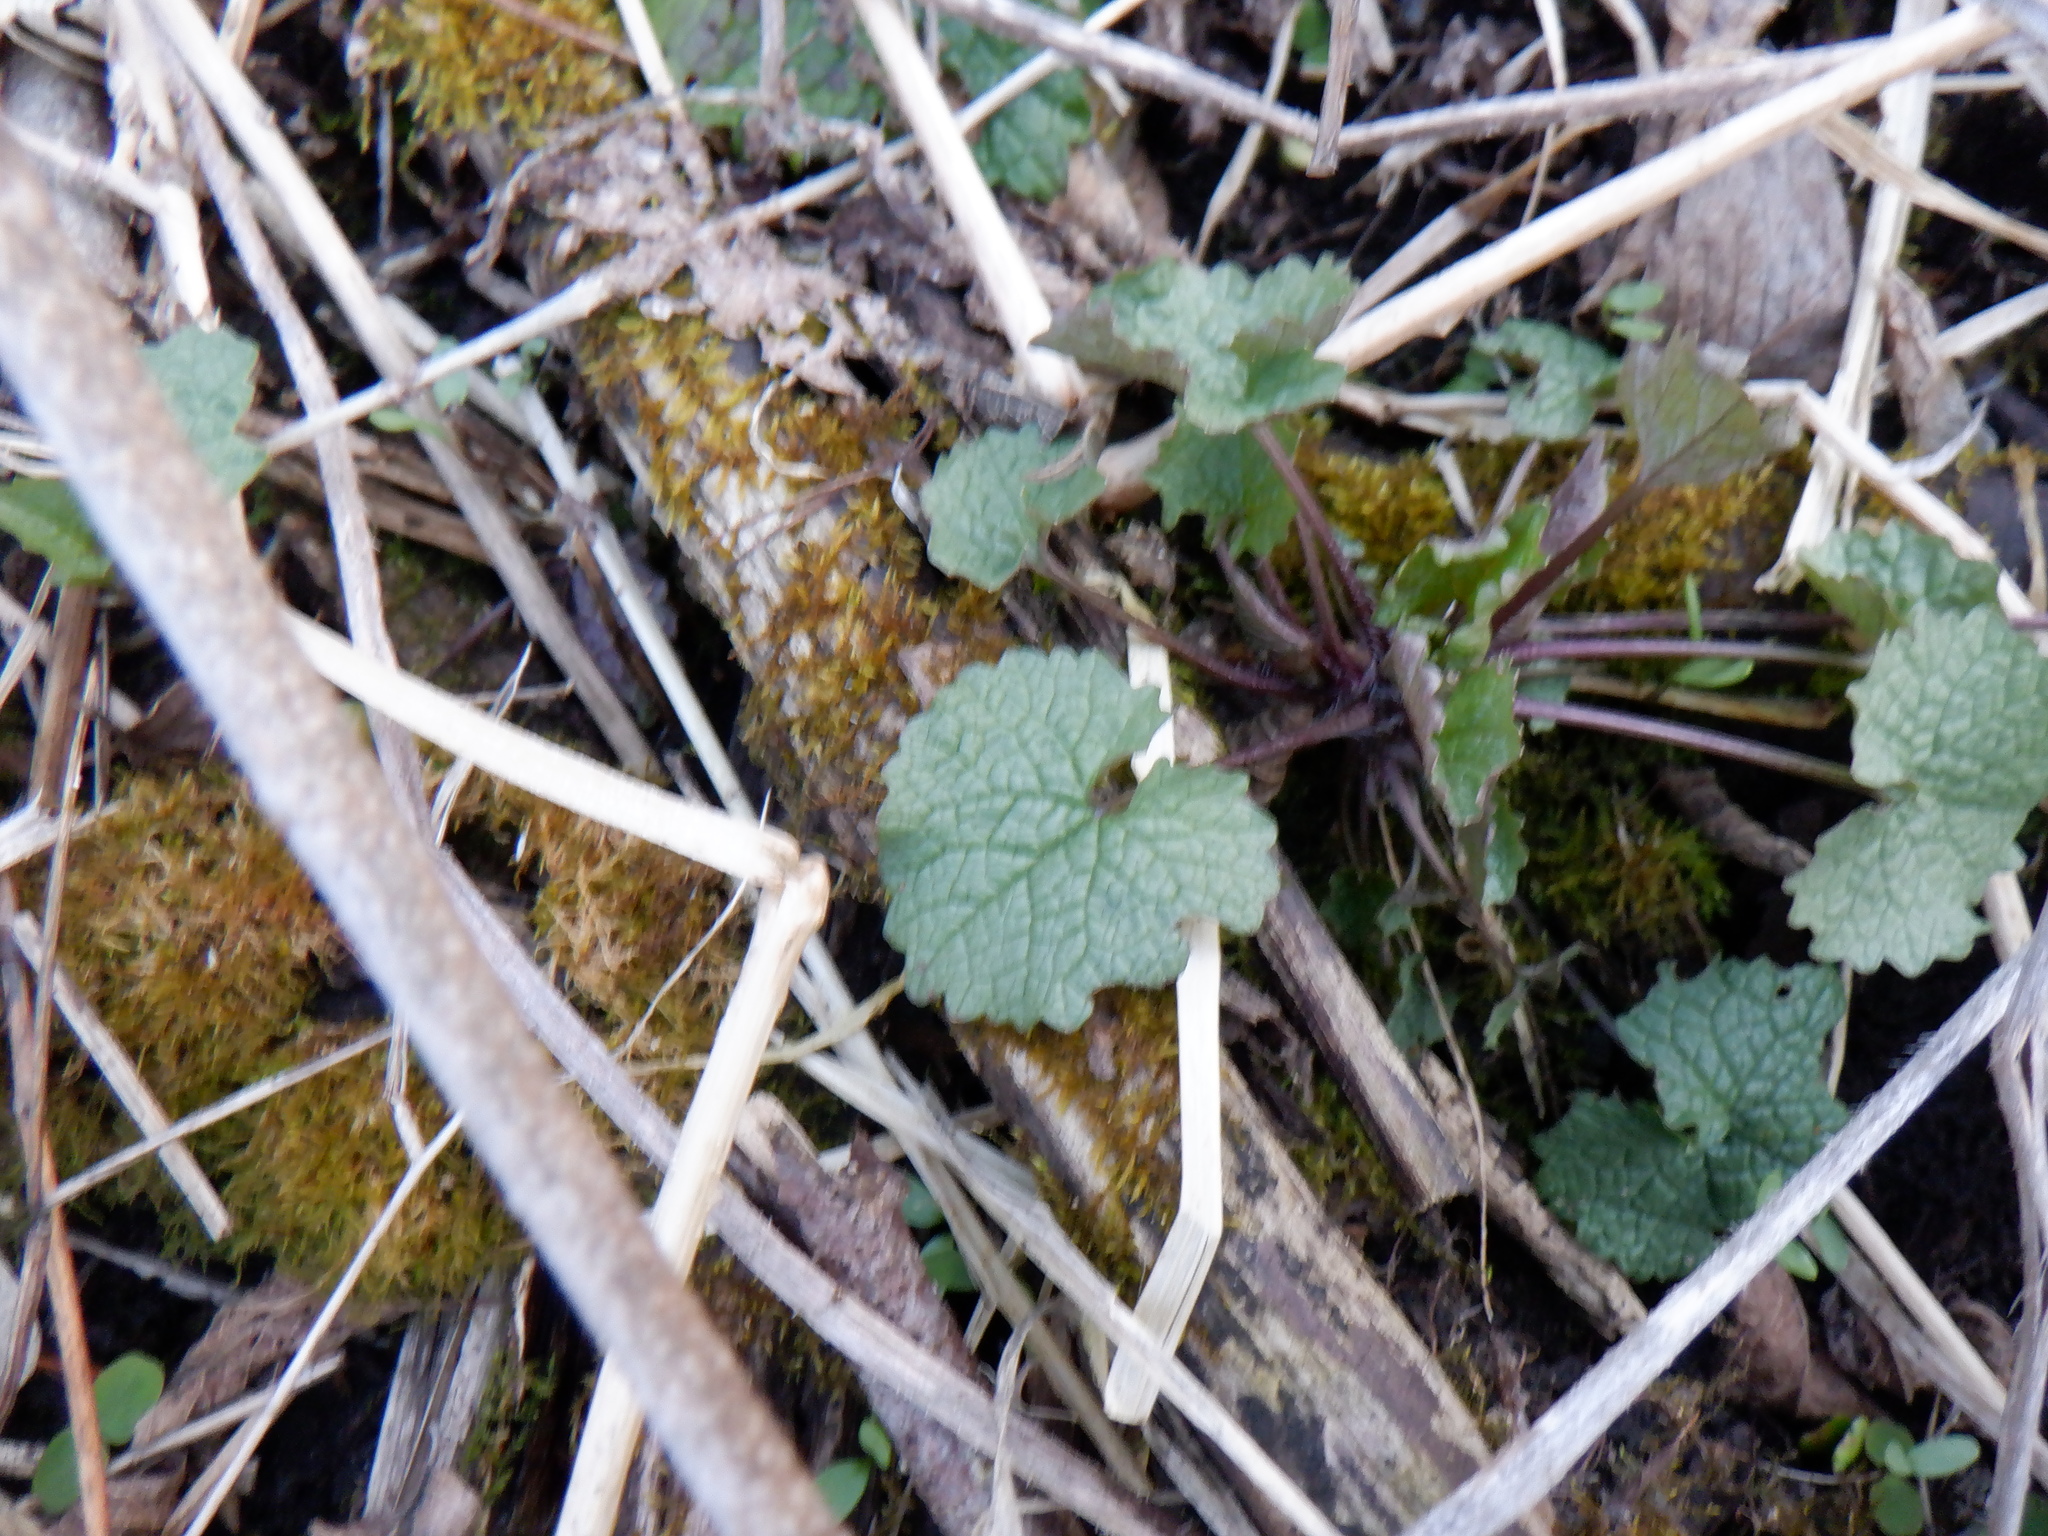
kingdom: Plantae
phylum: Tracheophyta
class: Magnoliopsida
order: Brassicales
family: Brassicaceae
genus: Alliaria
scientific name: Alliaria petiolata
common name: Garlic mustard
